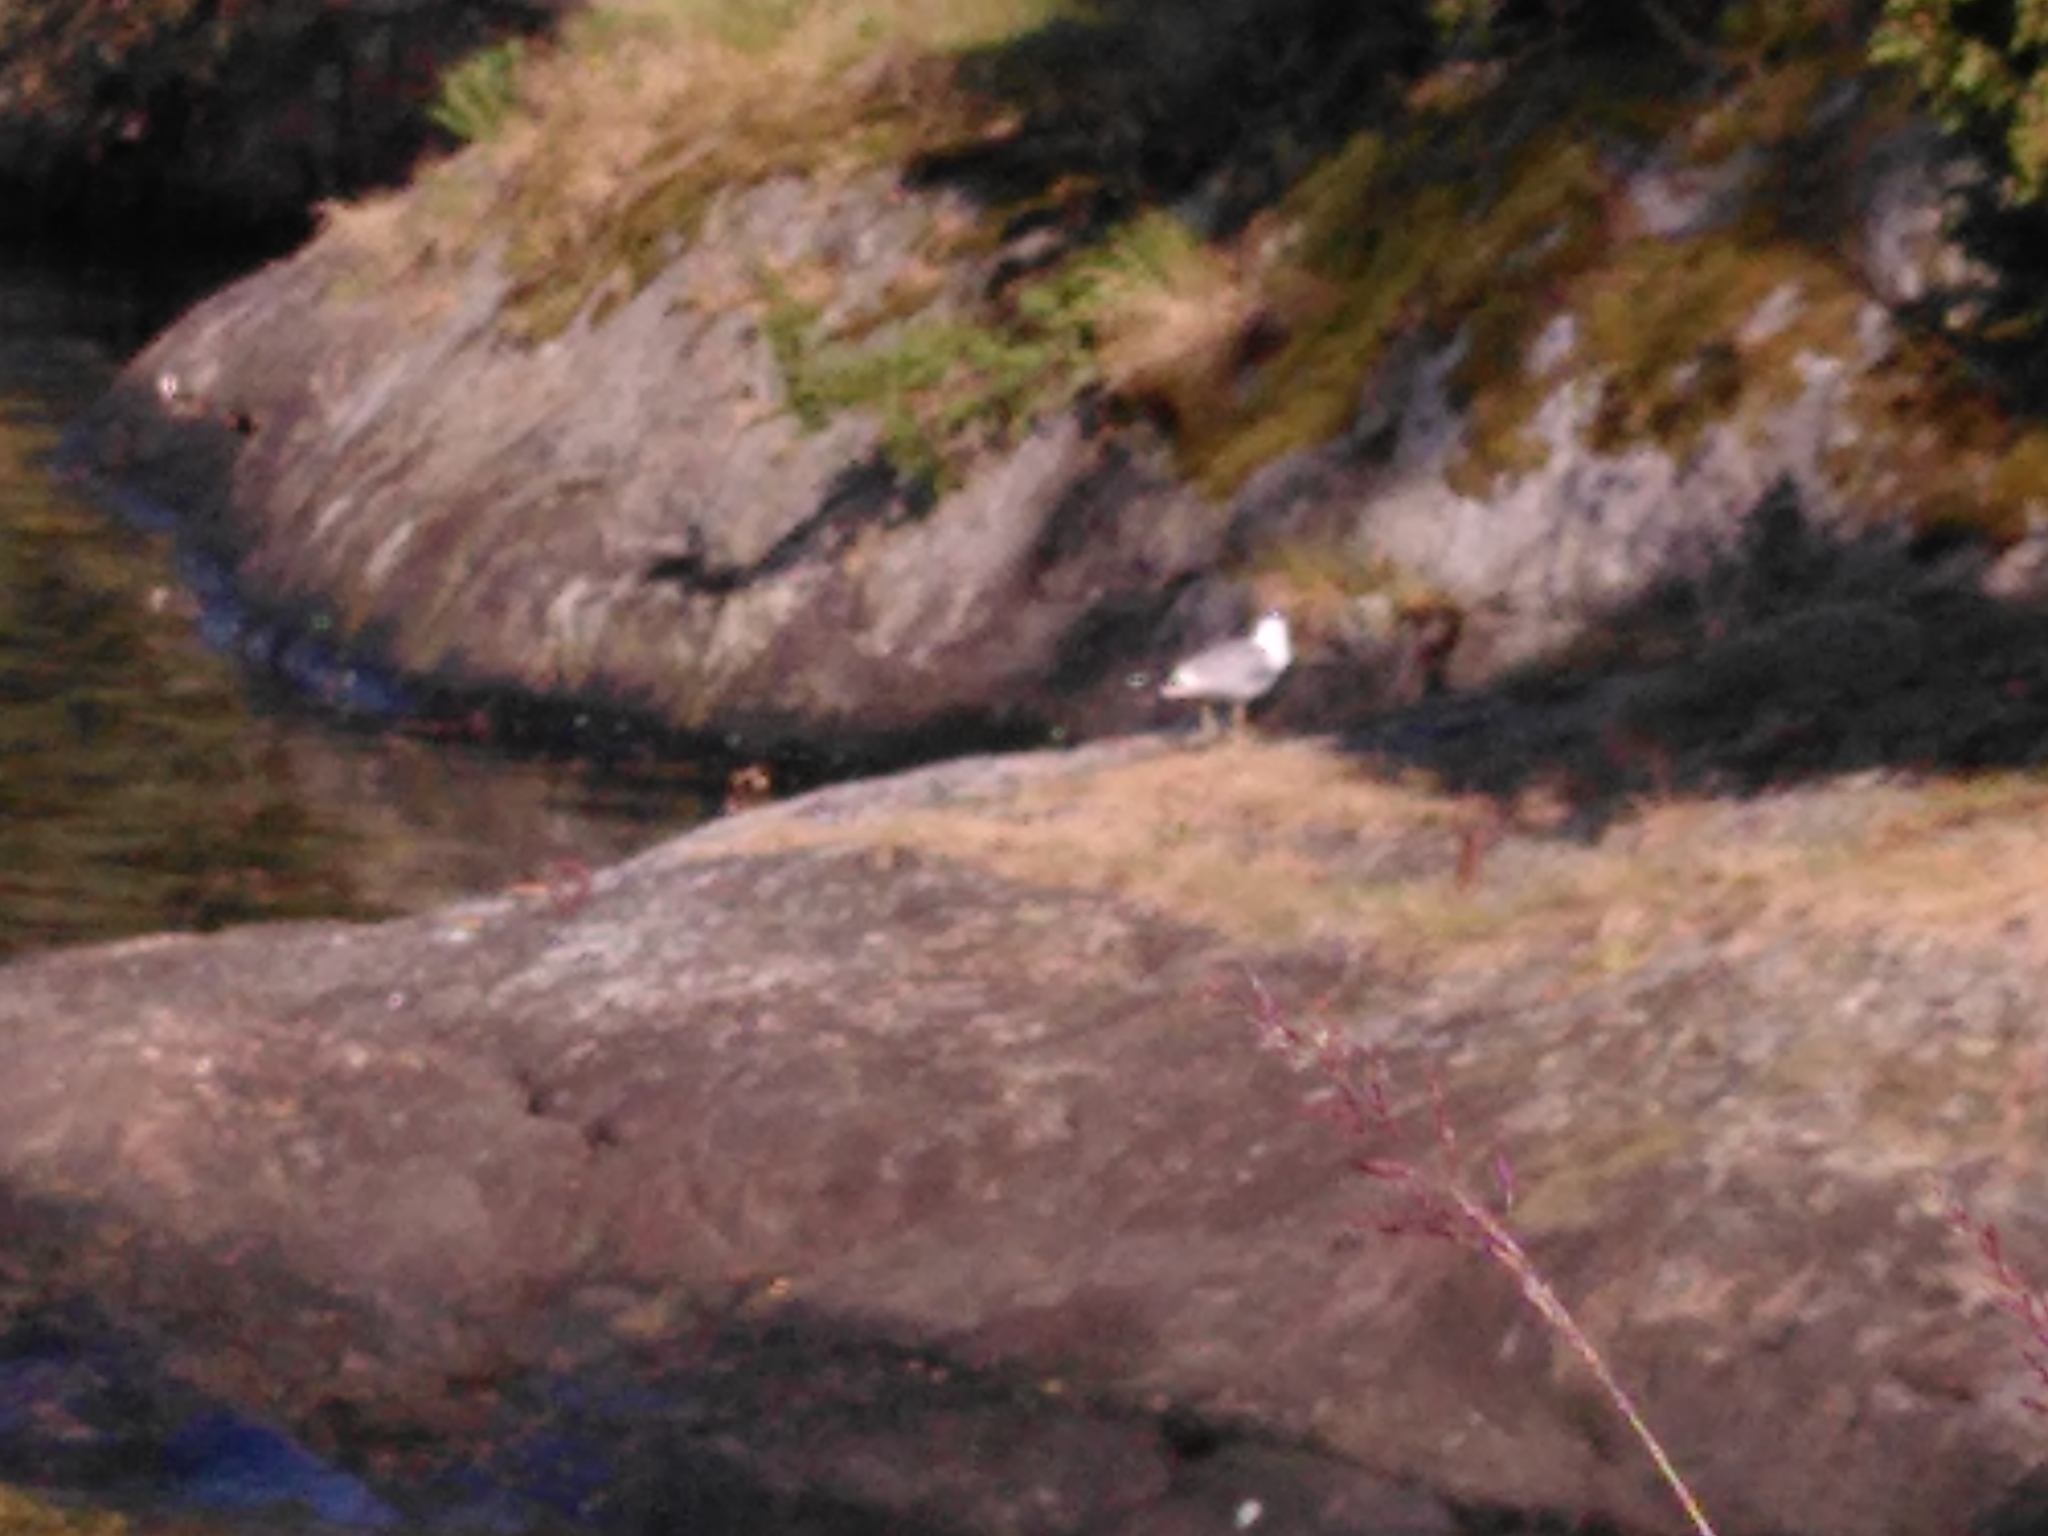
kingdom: Animalia
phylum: Chordata
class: Aves
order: Charadriiformes
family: Laridae
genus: Larus
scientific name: Larus canus
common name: Mew gull
